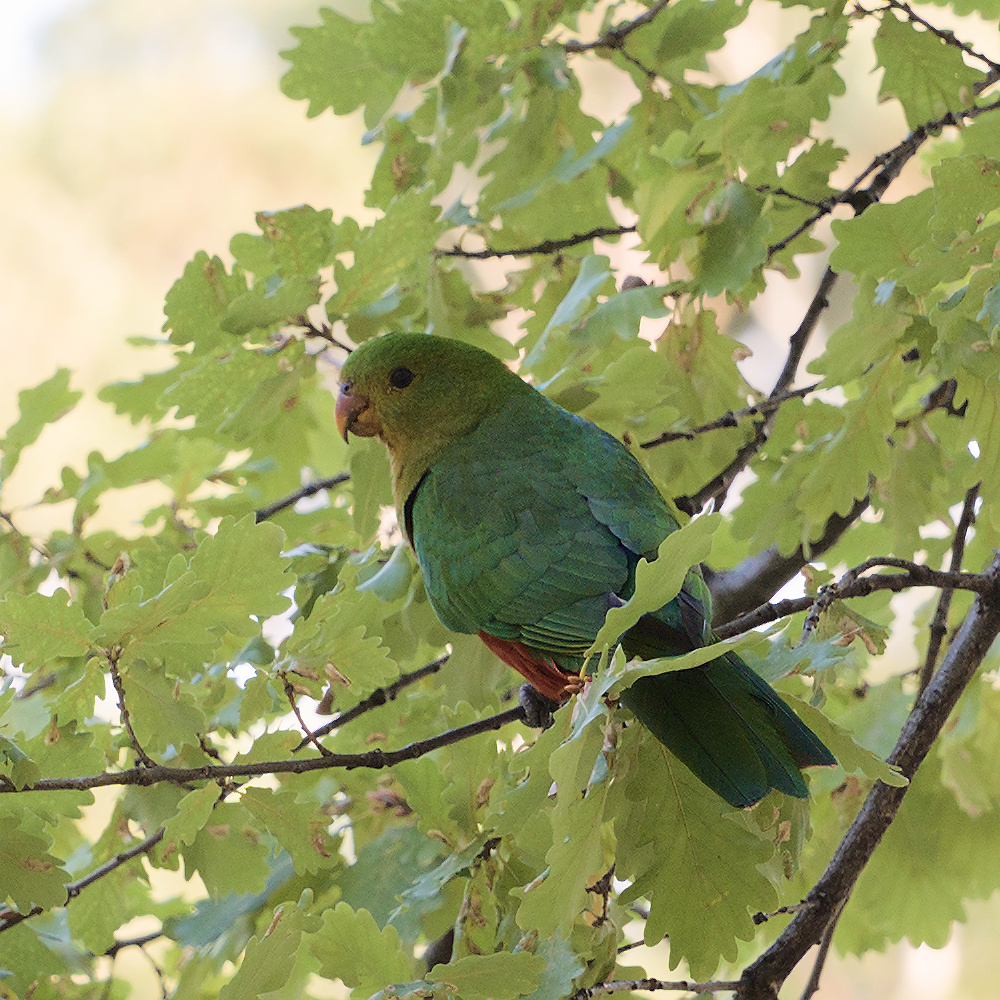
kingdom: Animalia
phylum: Chordata
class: Aves
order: Psittaciformes
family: Psittacidae
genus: Alisterus
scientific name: Alisterus scapularis
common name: Australian king parrot
